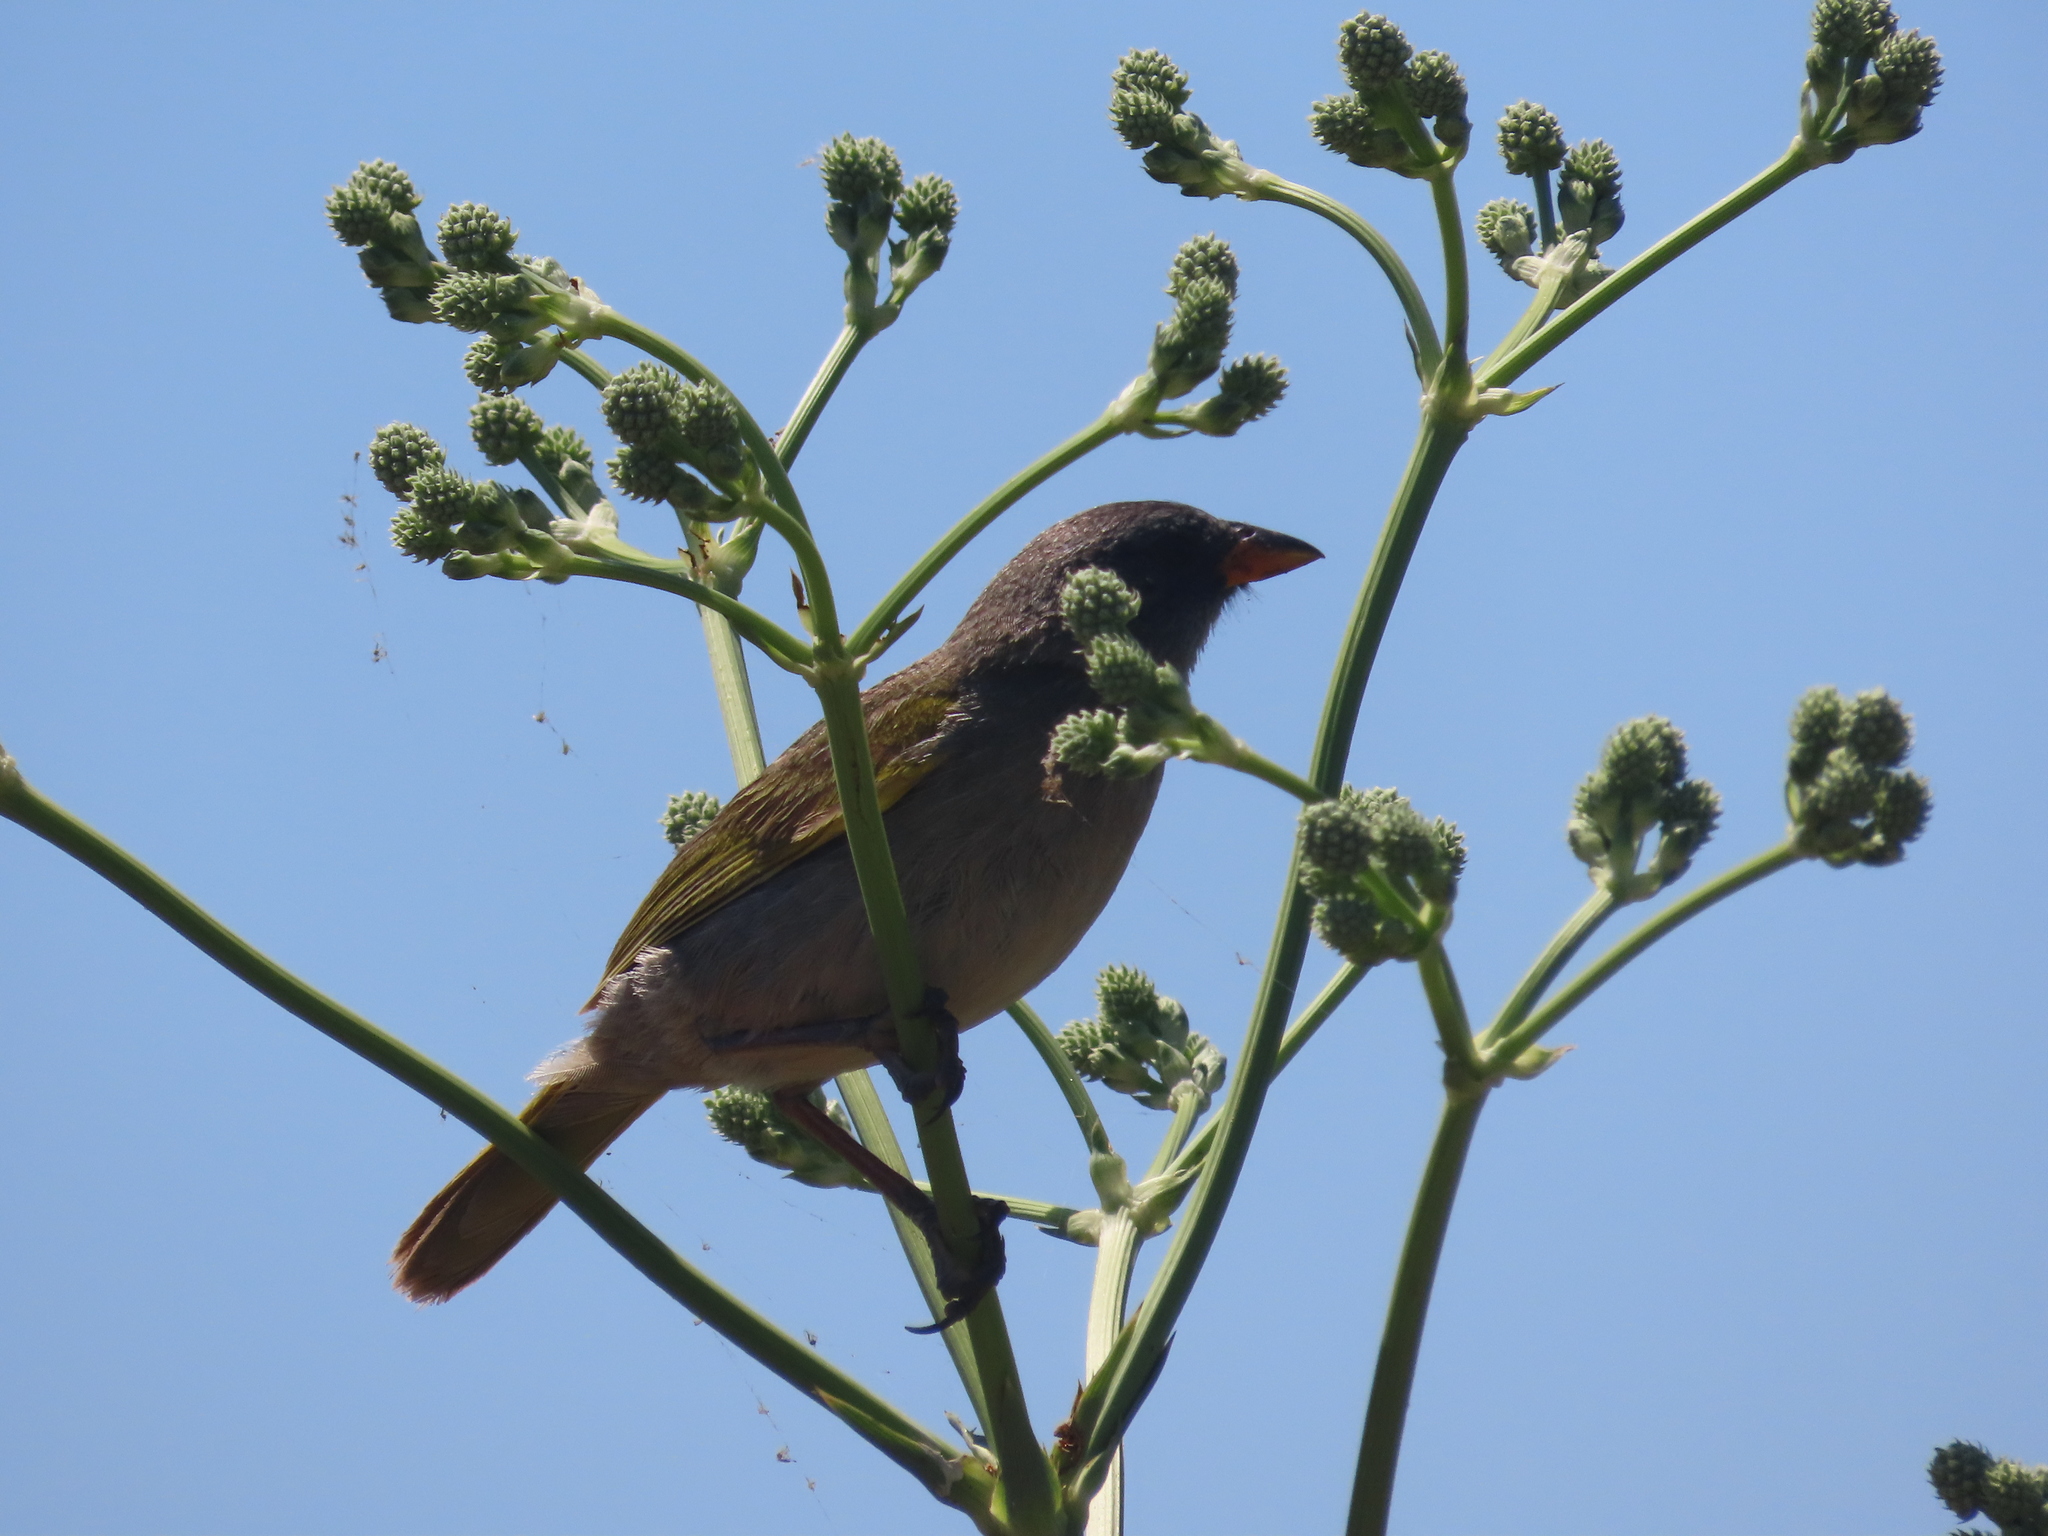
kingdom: Animalia
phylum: Chordata
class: Aves
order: Passeriformes
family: Thraupidae
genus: Embernagra
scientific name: Embernagra platensis
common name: Pampa finch
